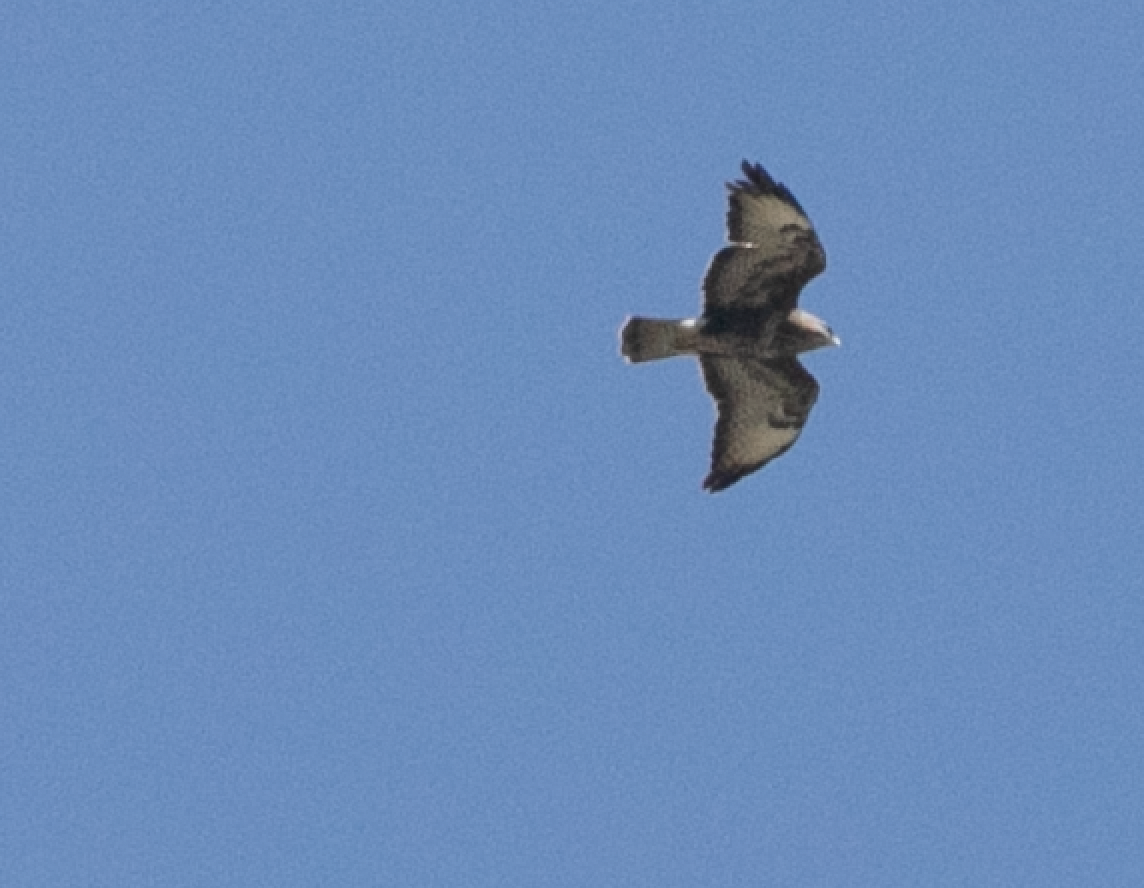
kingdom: Animalia
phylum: Chordata
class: Aves
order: Accipitriformes
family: Accipitridae
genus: Buteo
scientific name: Buteo buteo
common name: Common buzzard
